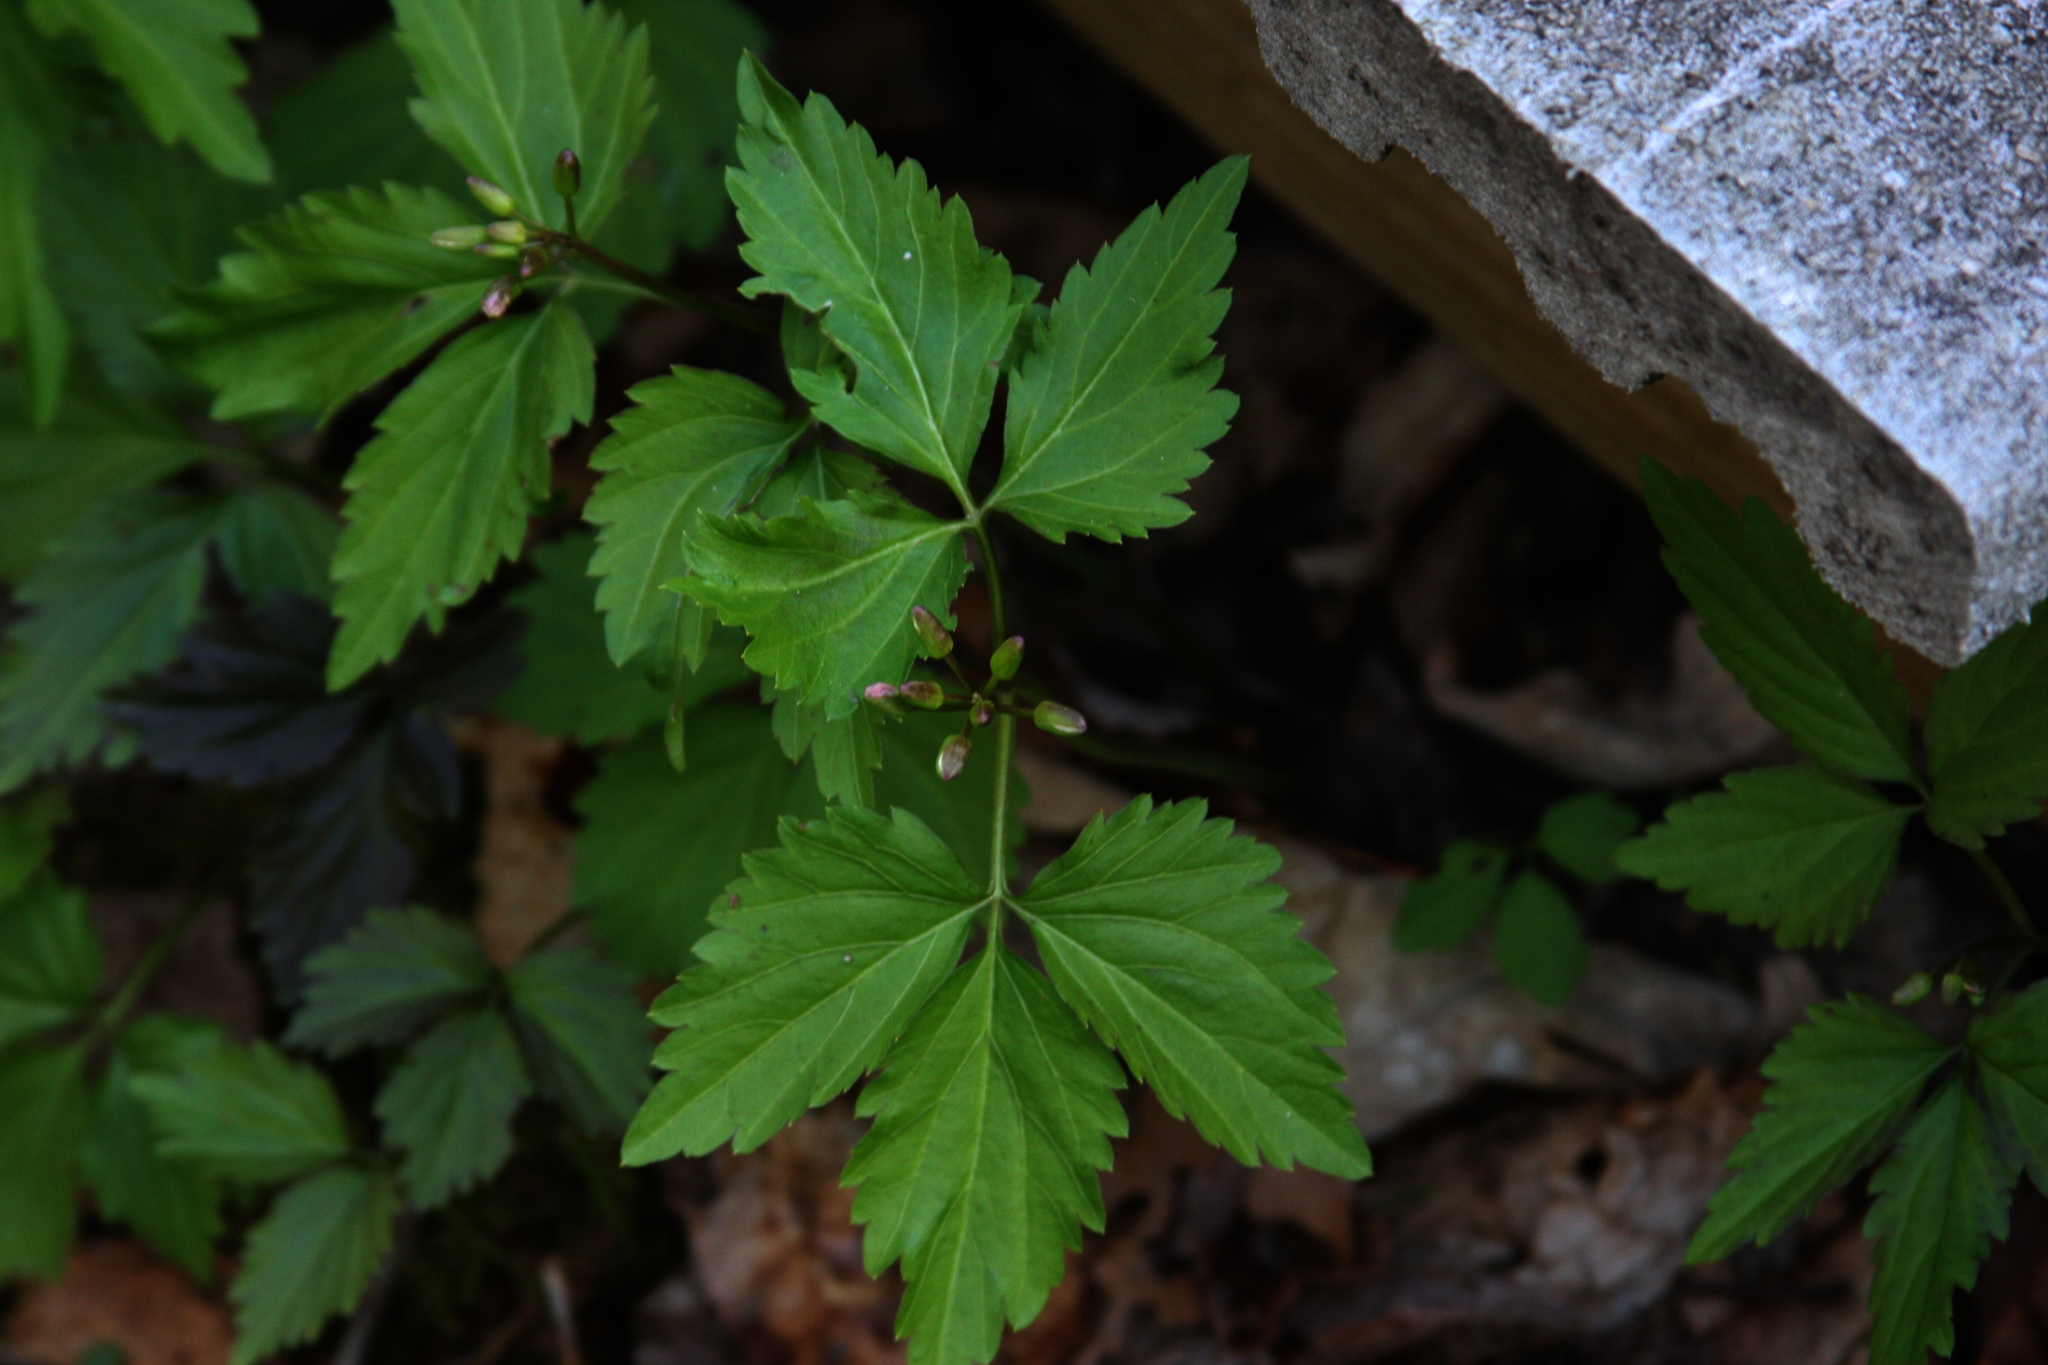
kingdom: Plantae
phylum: Tracheophyta
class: Magnoliopsida
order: Brassicales
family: Brassicaceae
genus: Cardamine
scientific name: Cardamine diphylla
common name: Broad-leaved toothwort
